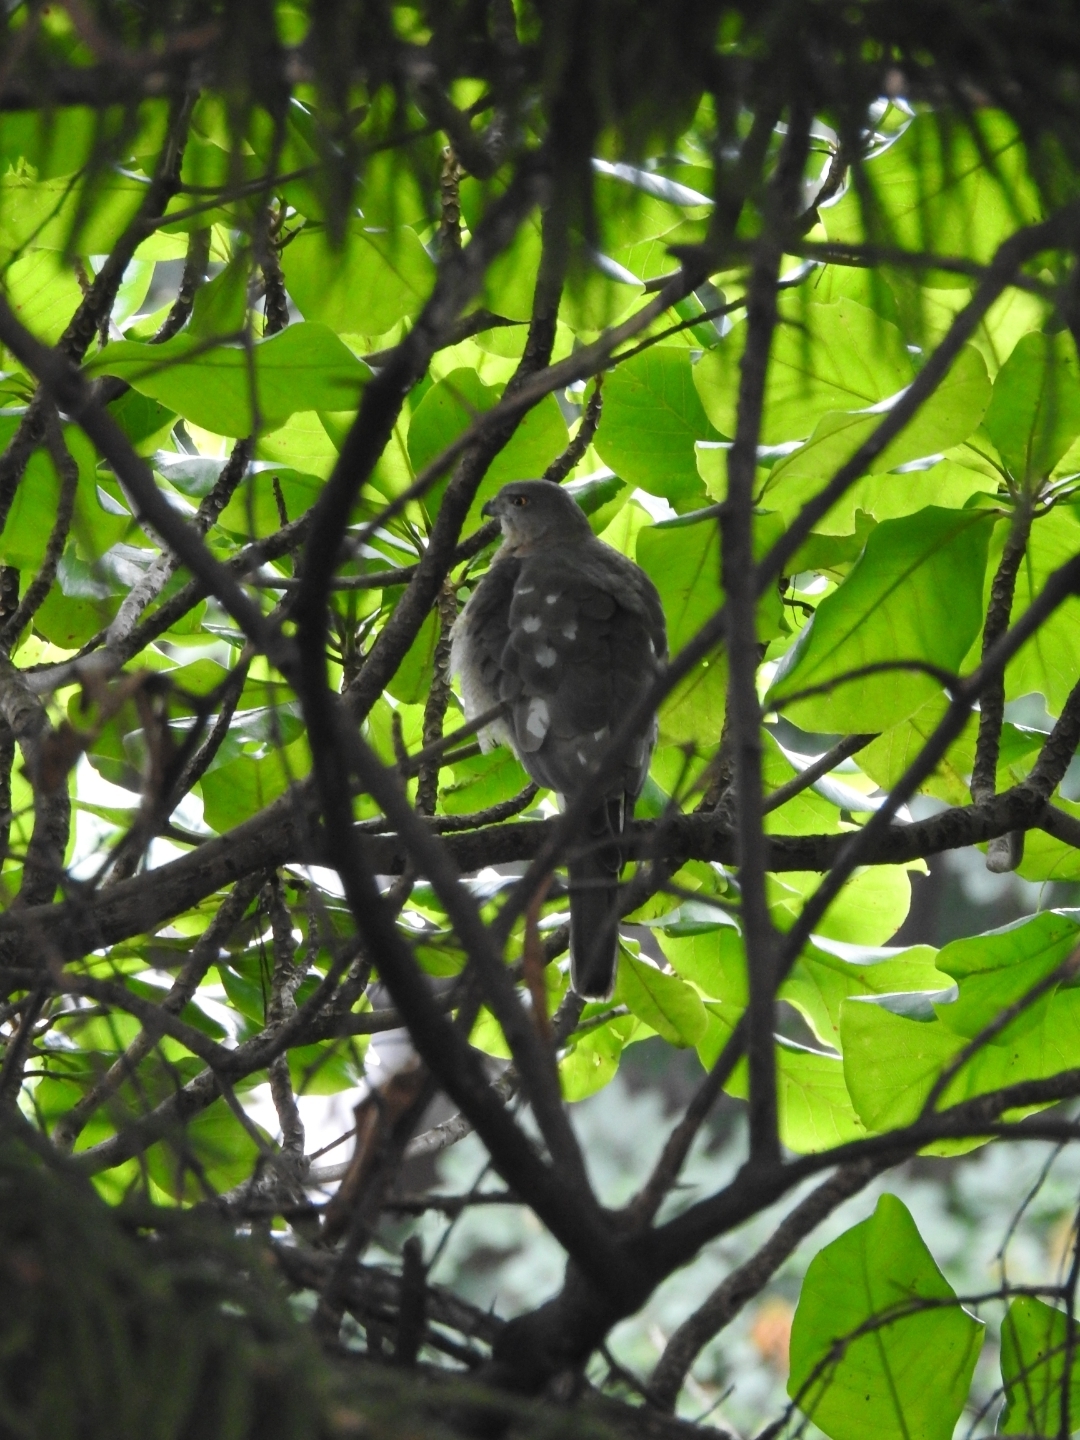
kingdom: Animalia
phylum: Chordata
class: Aves
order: Accipitriformes
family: Accipitridae
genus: Accipiter
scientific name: Accipiter badius
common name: Shikra
